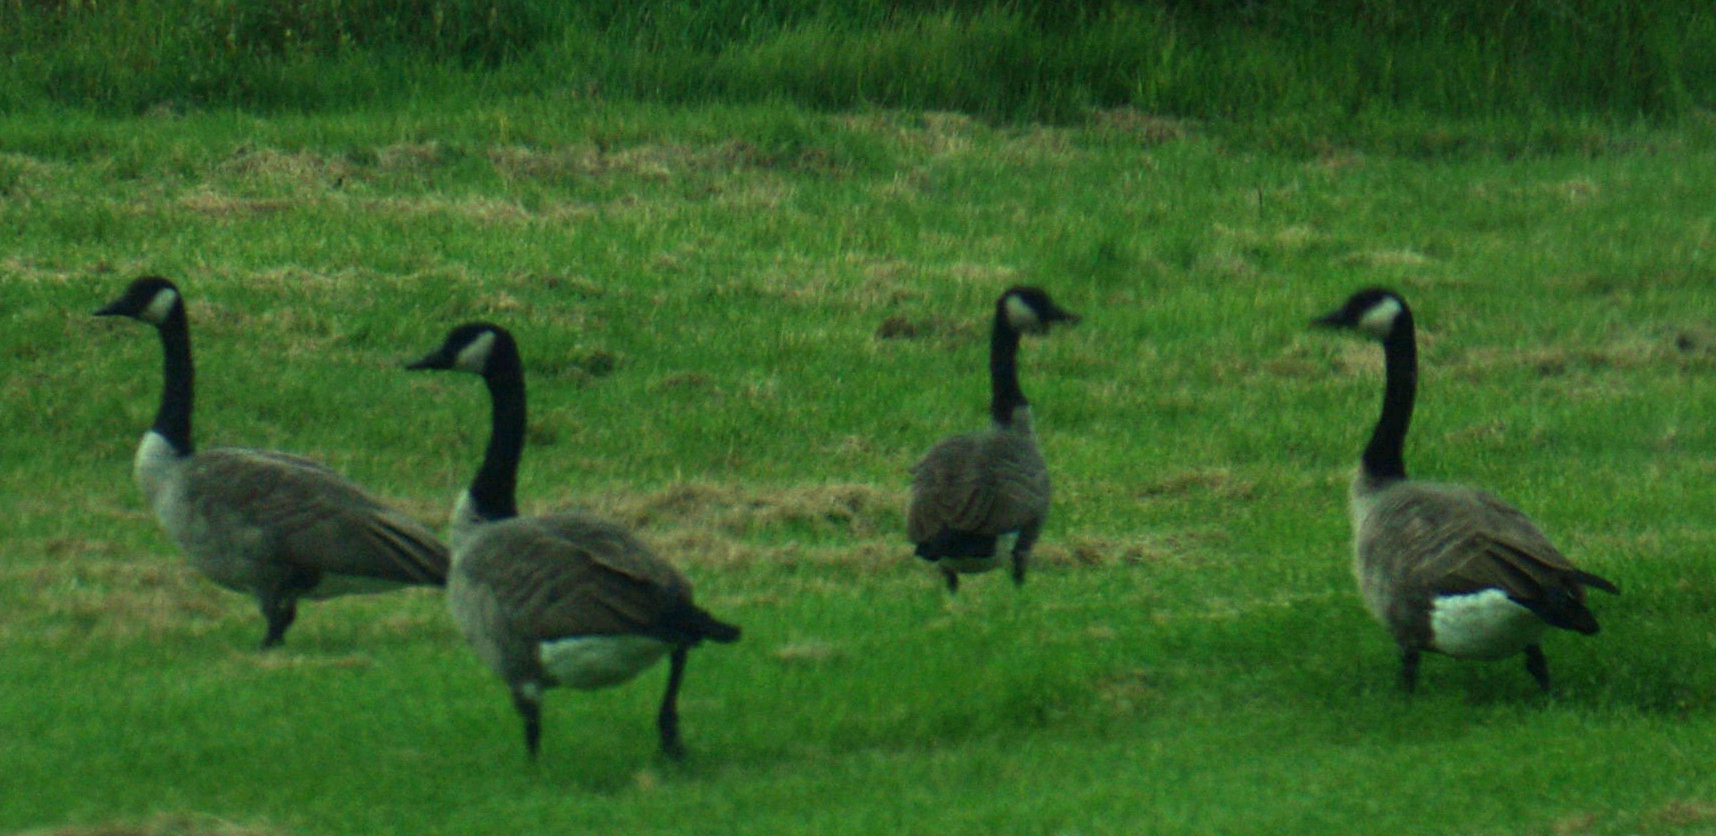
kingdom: Animalia
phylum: Chordata
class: Aves
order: Anseriformes
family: Anatidae
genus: Branta
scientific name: Branta canadensis
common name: Canada goose
